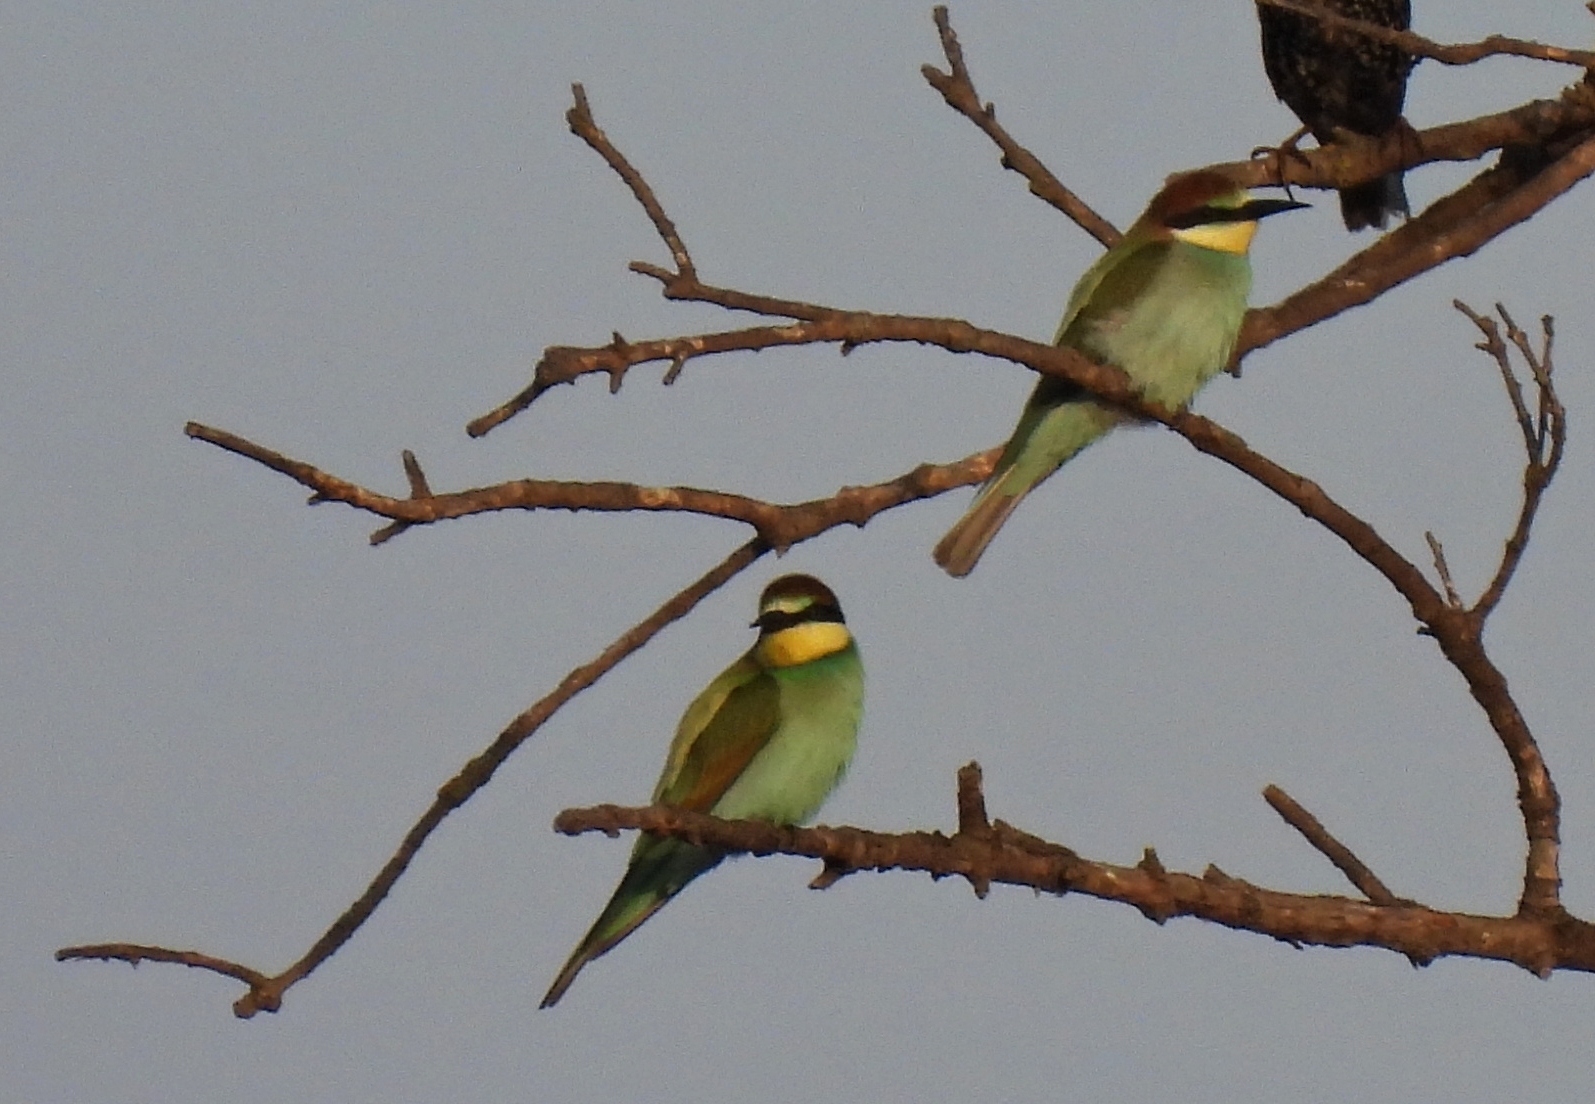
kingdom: Animalia
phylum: Chordata
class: Aves
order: Coraciiformes
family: Meropidae
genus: Merops
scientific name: Merops apiaster
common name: European bee-eater
